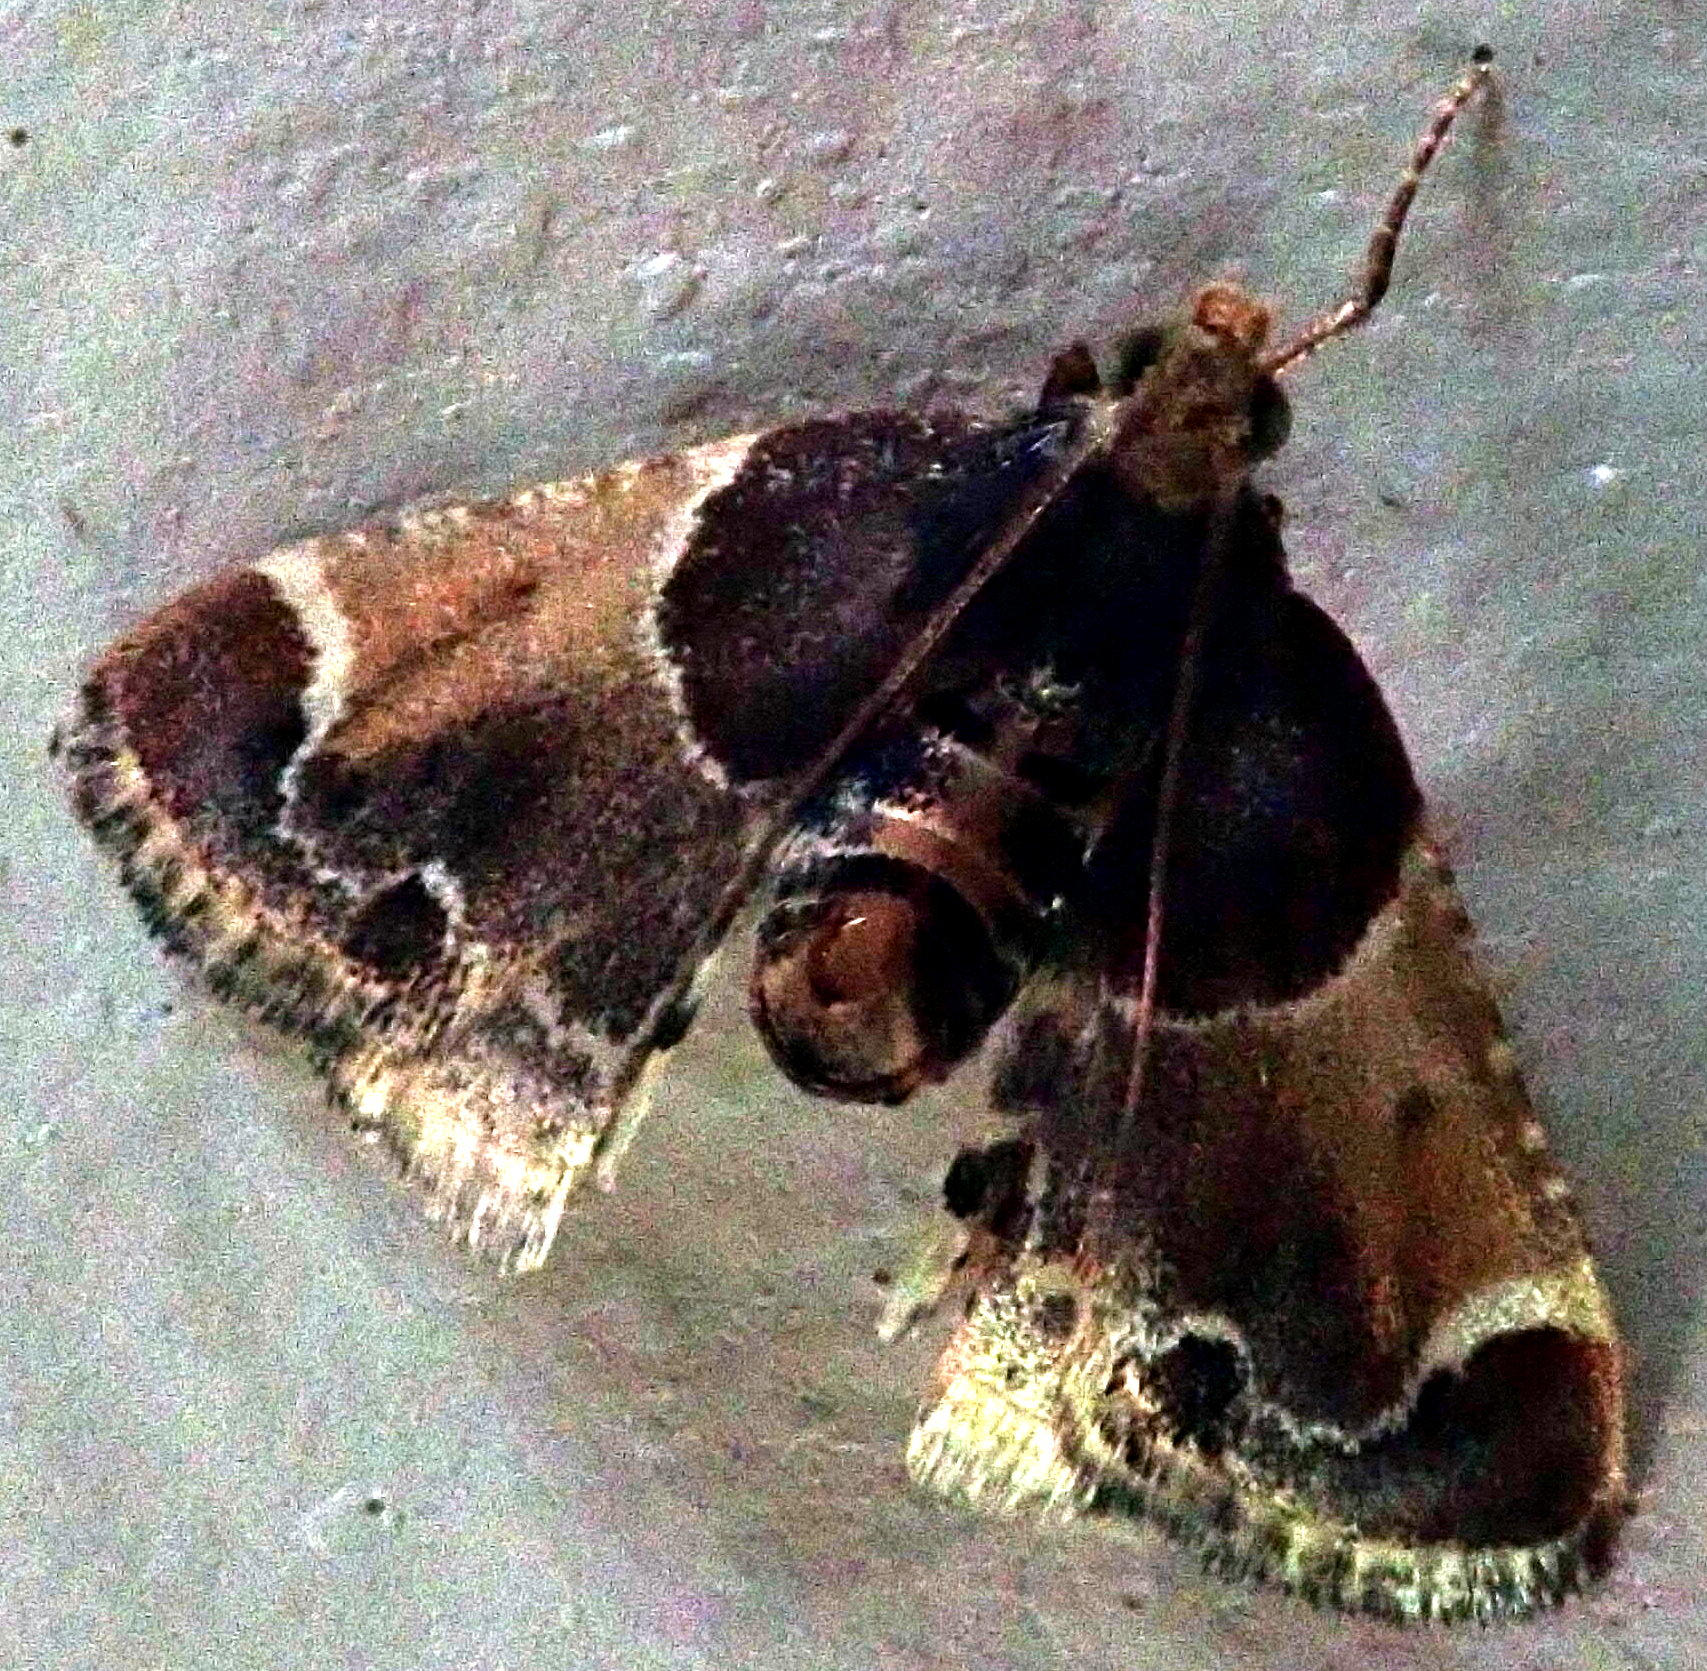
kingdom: Animalia
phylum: Arthropoda
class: Insecta
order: Lepidoptera
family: Pyralidae
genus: Pyralis
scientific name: Pyralis farinalis
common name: Meal moth
